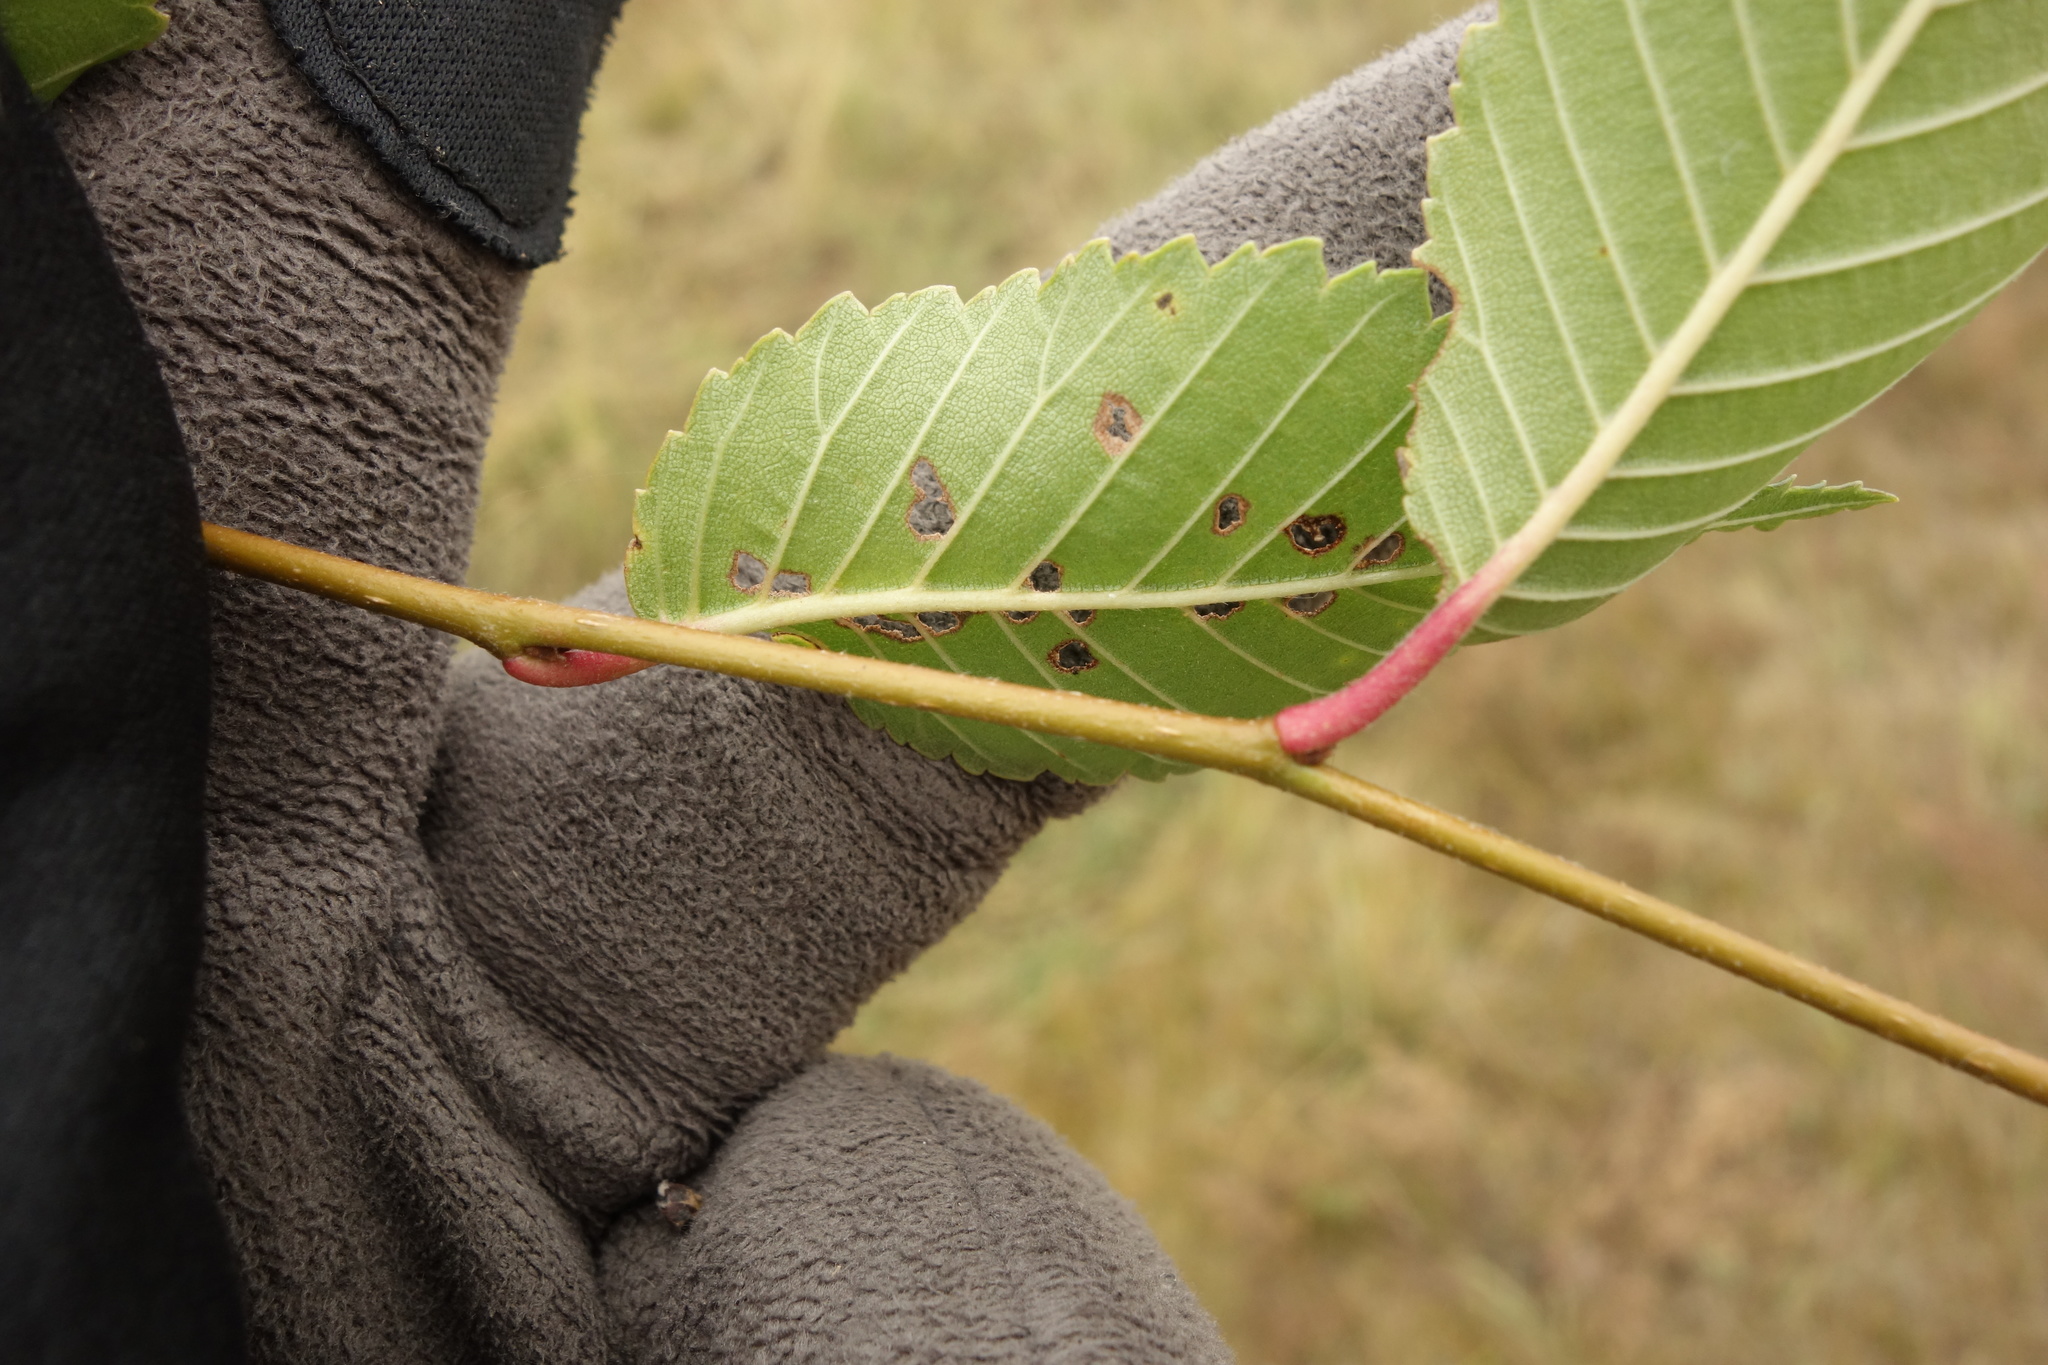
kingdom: Plantae
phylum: Tracheophyta
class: Magnoliopsida
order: Rosales
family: Ulmaceae
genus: Ulmus
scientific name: Ulmus pumila
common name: Siberian elm
